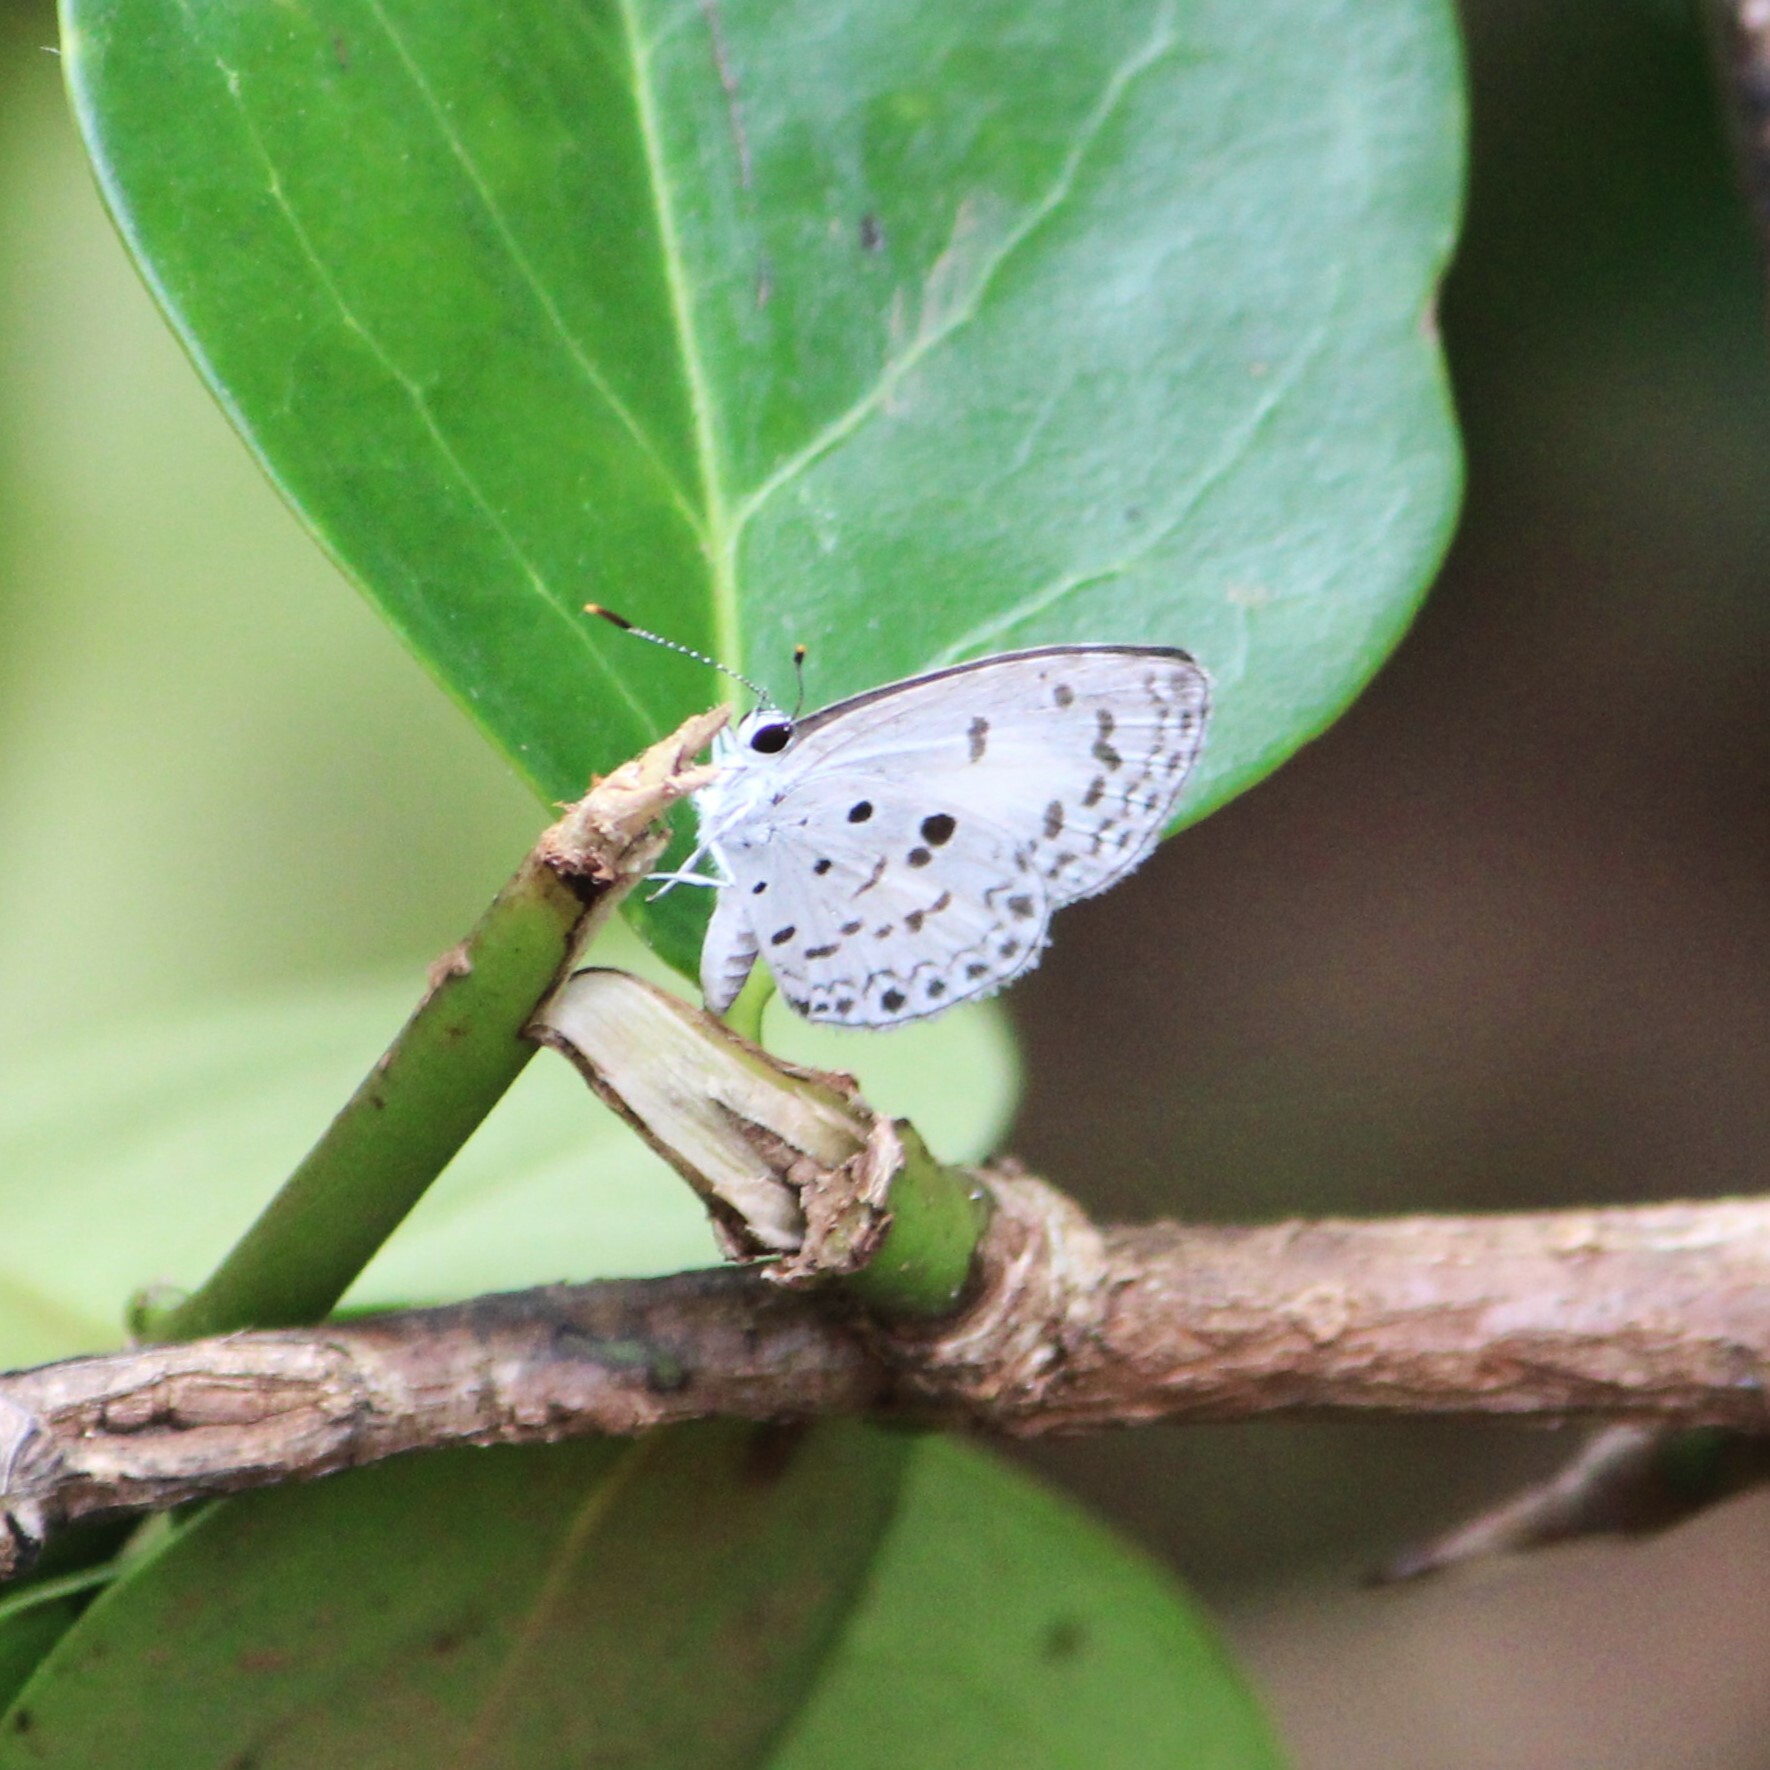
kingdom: Animalia
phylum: Arthropoda
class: Insecta
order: Lepidoptera
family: Lycaenidae
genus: Acytolepis
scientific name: Acytolepis puspa
